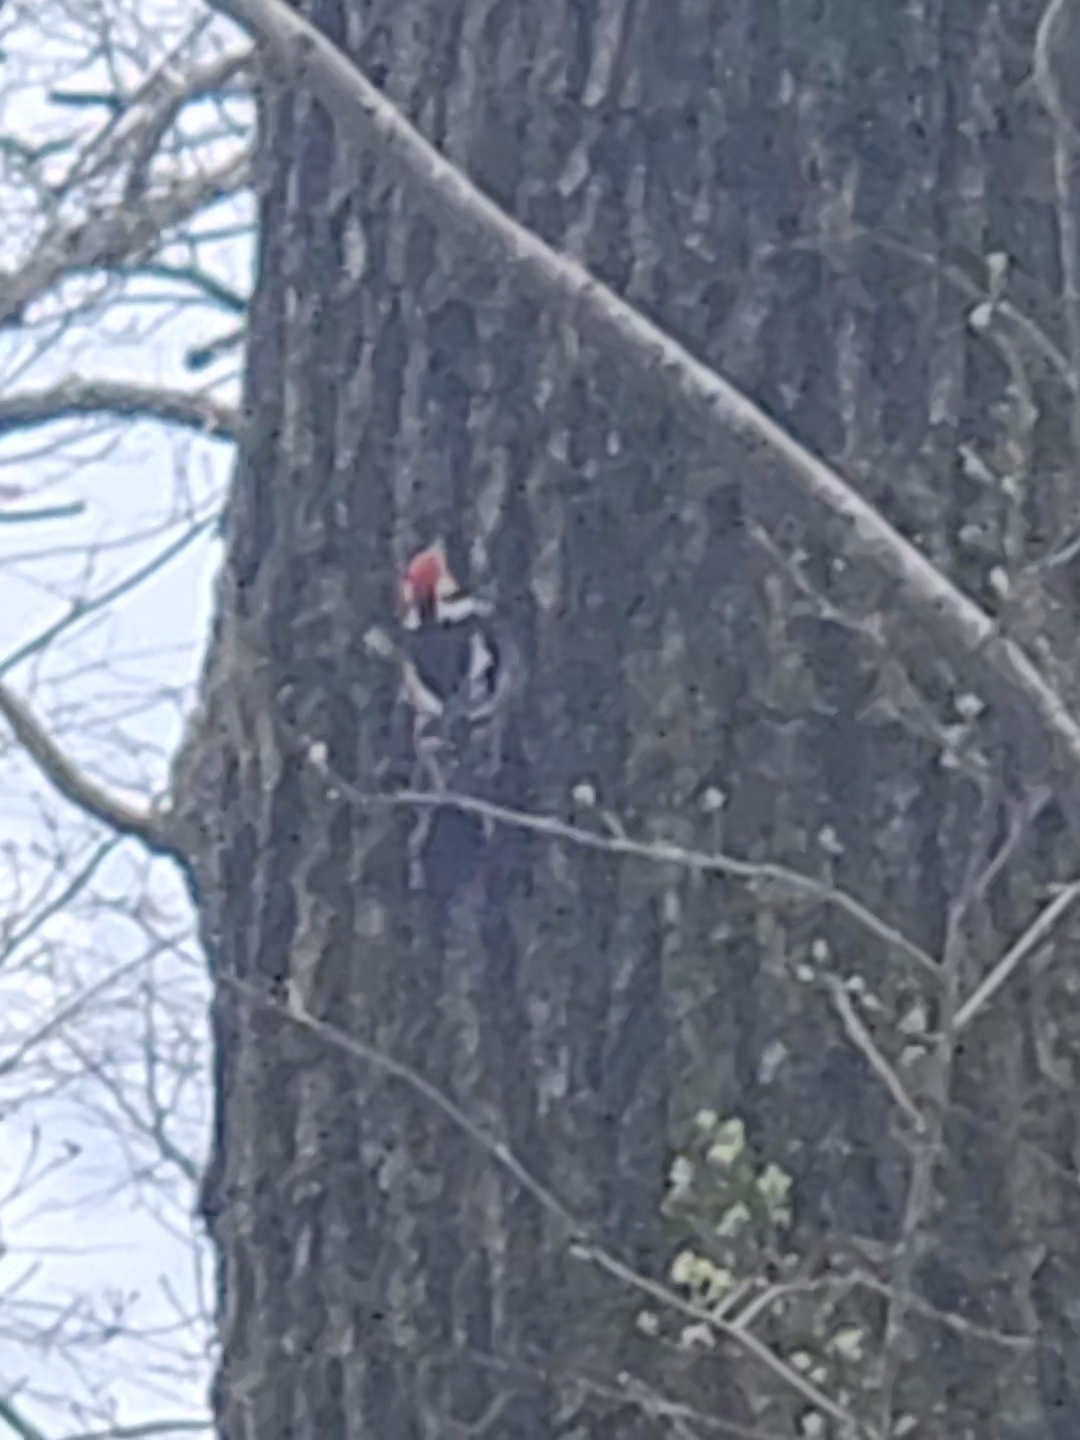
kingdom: Animalia
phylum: Chordata
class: Aves
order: Piciformes
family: Picidae
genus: Dendrocoptes
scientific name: Dendrocoptes medius
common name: Middle spotted woodpecker
